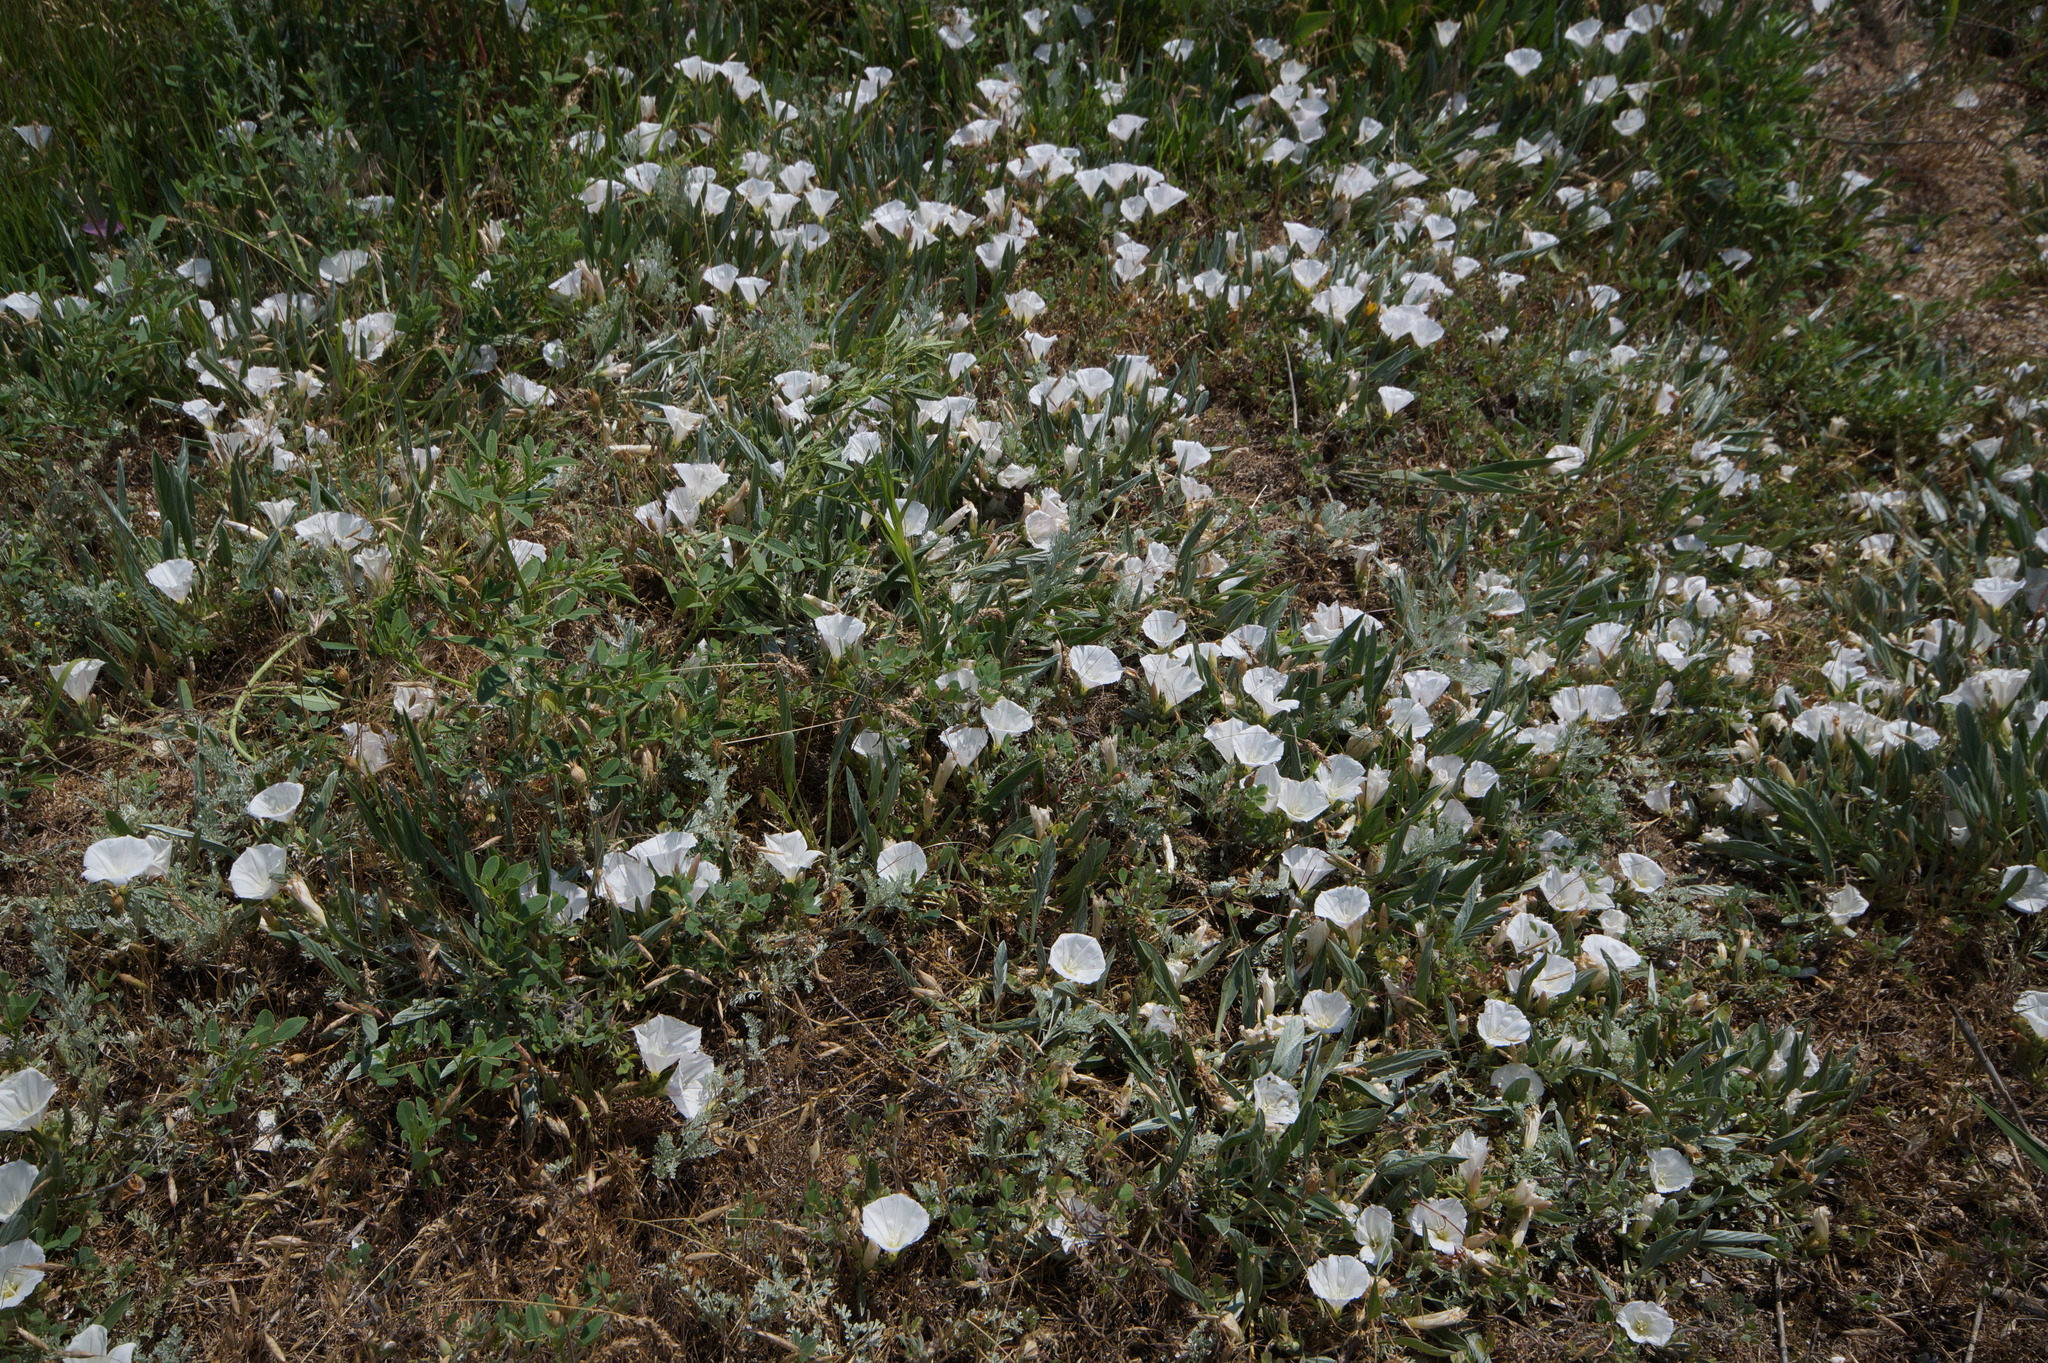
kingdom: Plantae
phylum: Tracheophyta
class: Magnoliopsida
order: Solanales
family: Convolvulaceae
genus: Convolvulus
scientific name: Convolvulus lineatus
